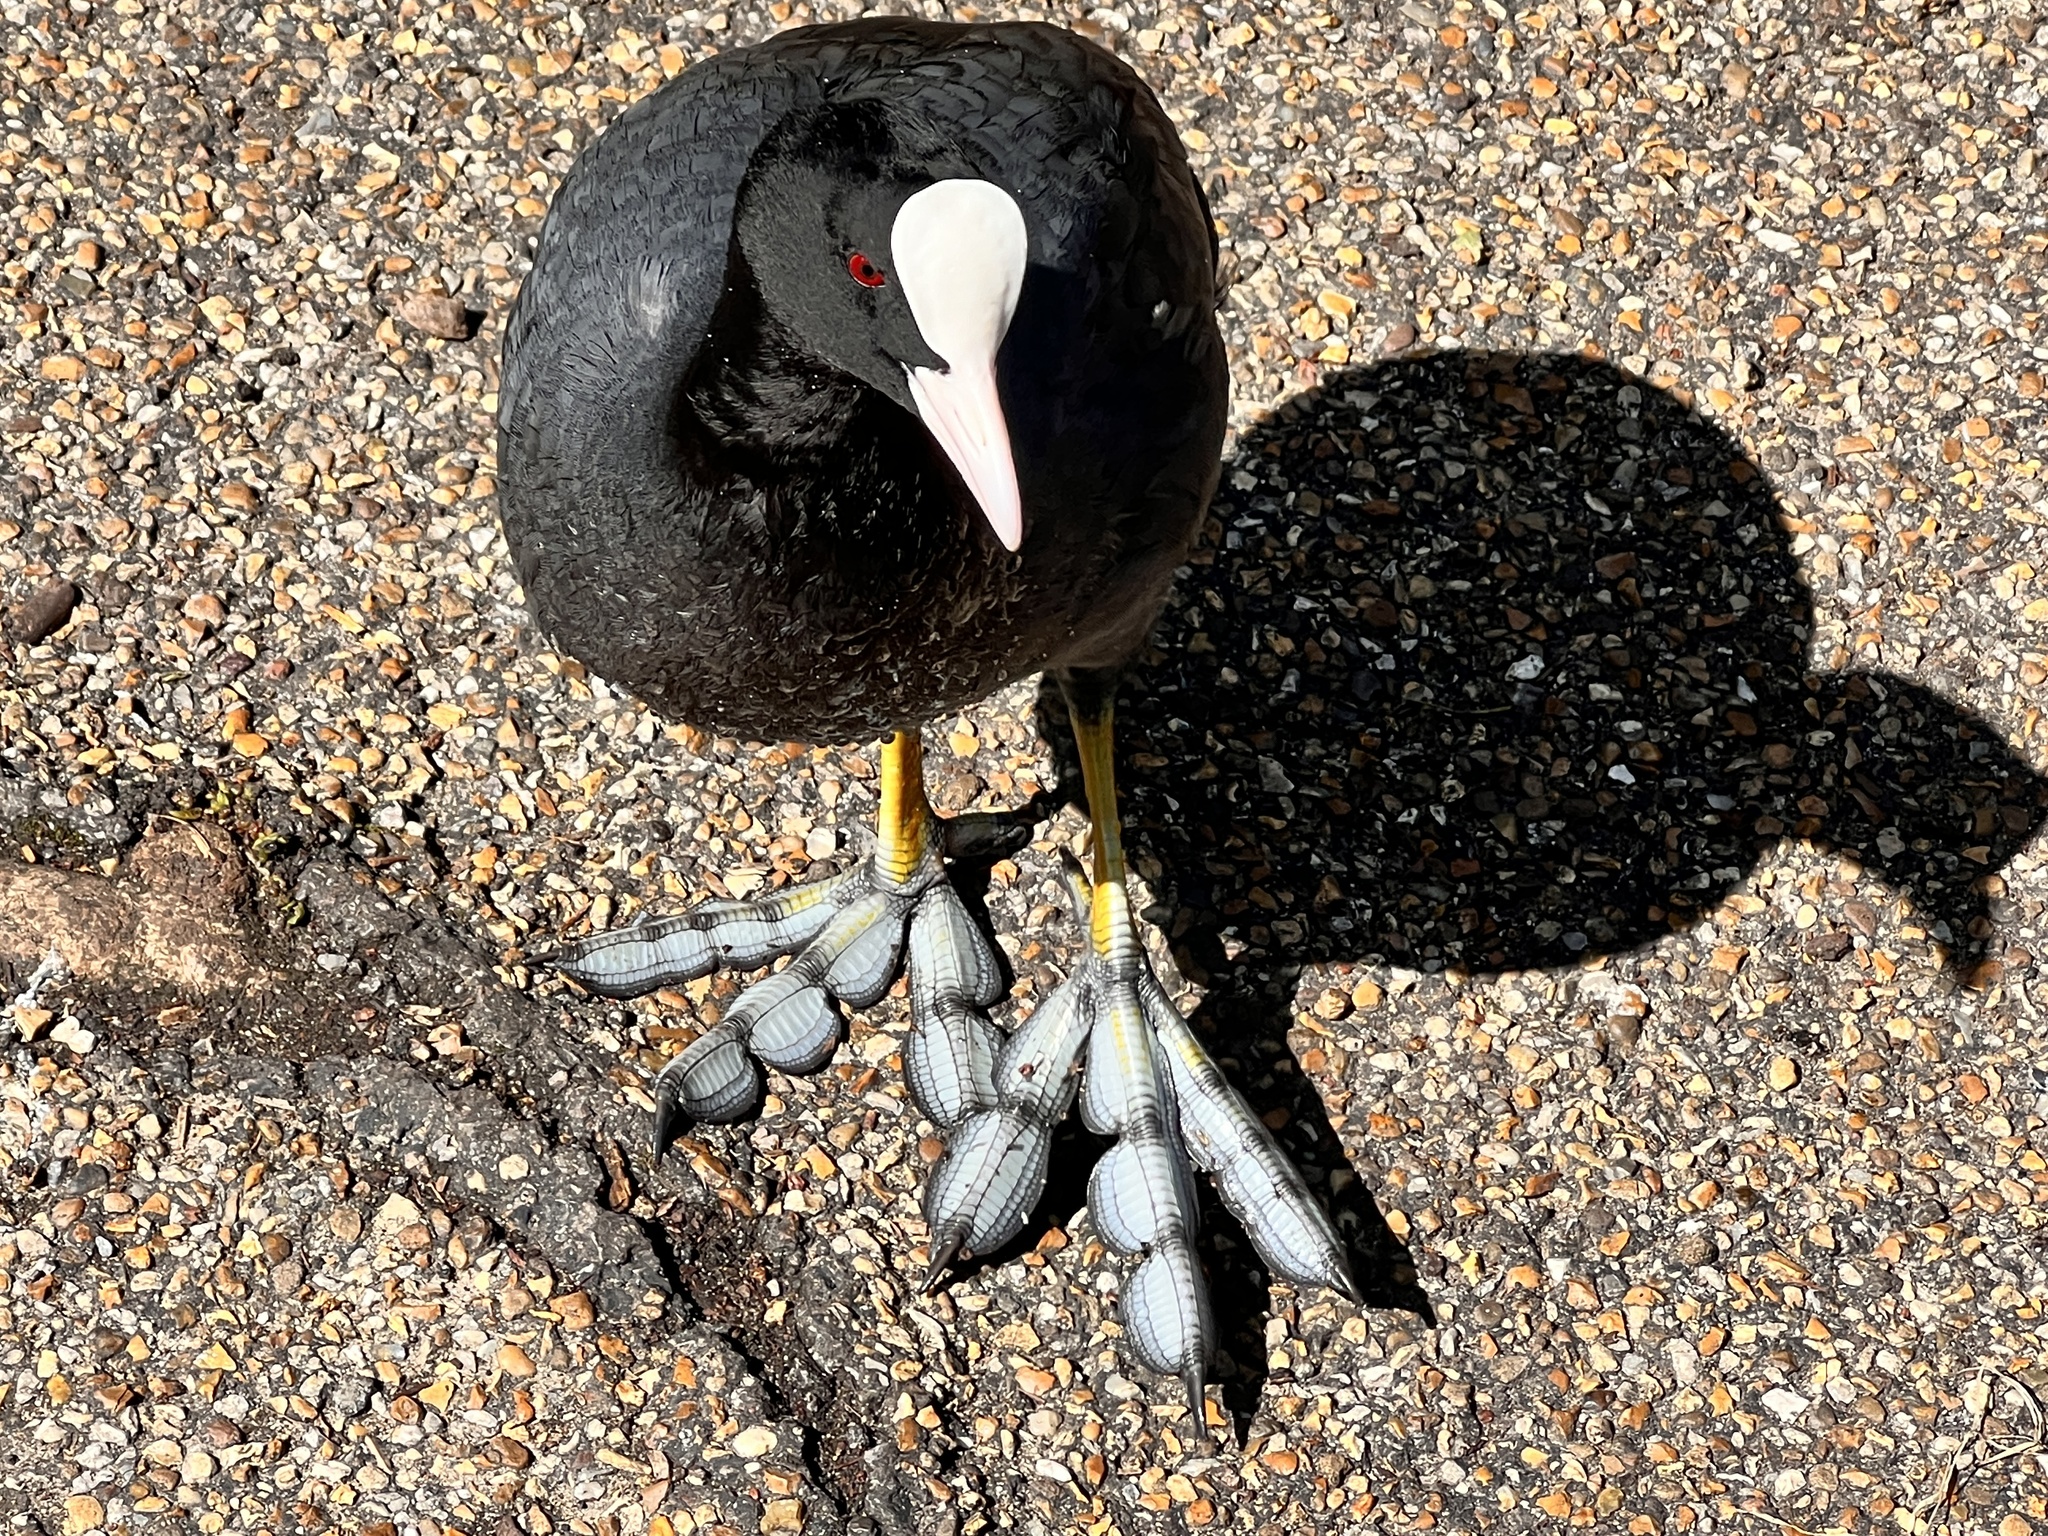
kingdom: Animalia
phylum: Chordata
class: Aves
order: Gruiformes
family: Rallidae
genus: Fulica
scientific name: Fulica atra
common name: Eurasian coot
